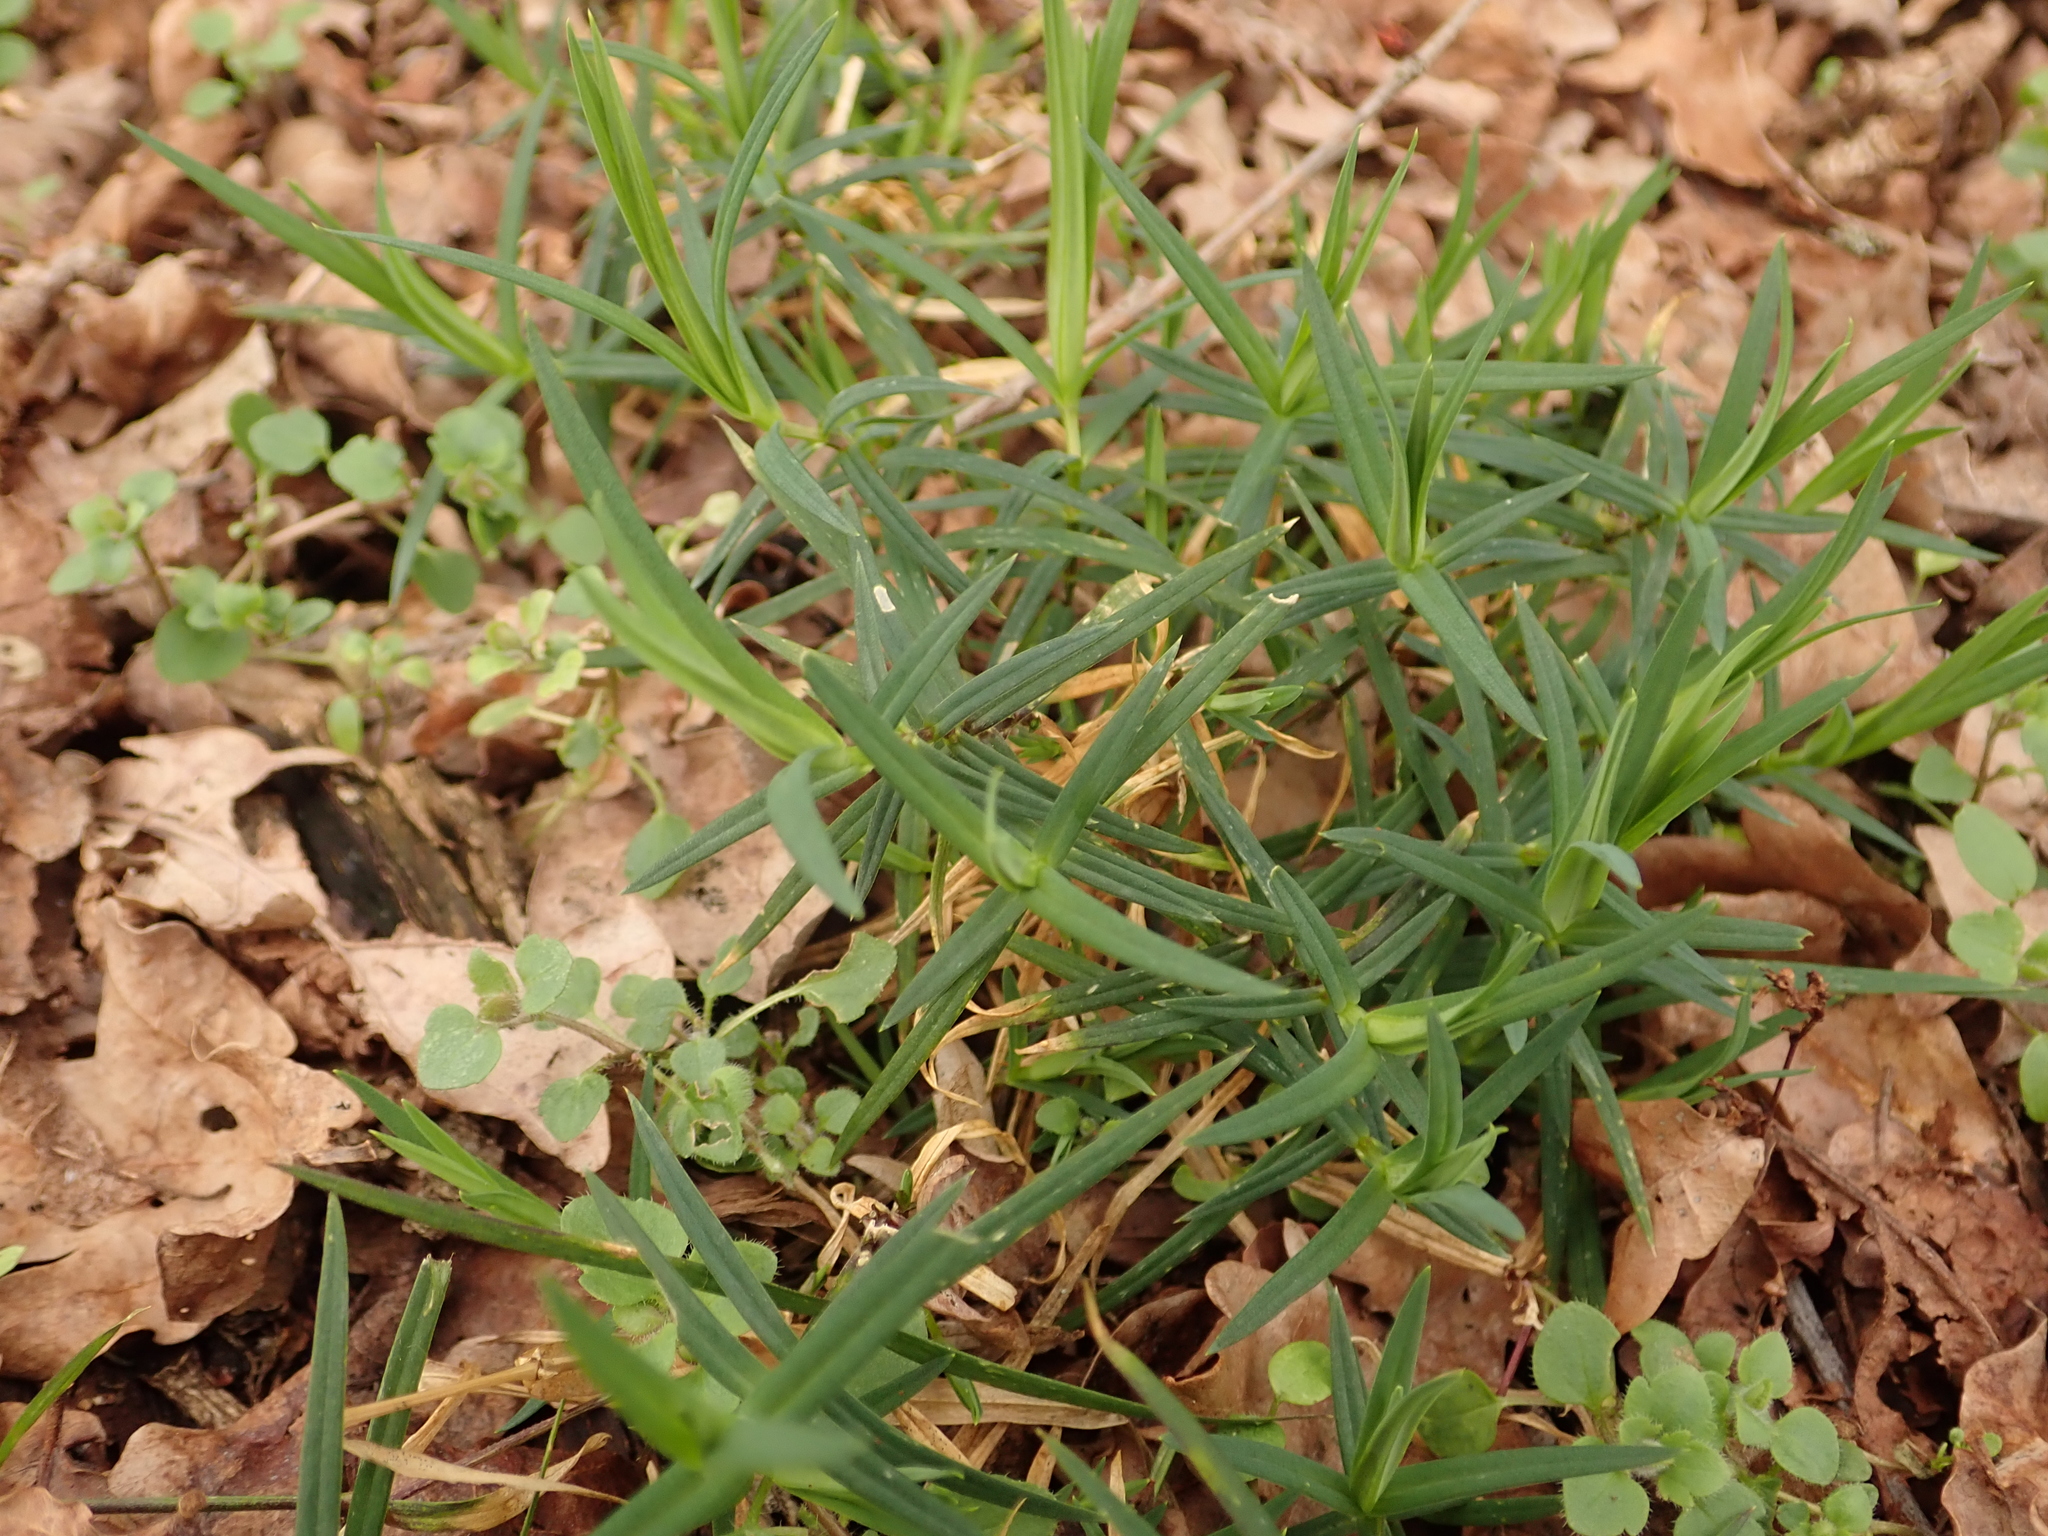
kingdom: Plantae
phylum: Tracheophyta
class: Magnoliopsida
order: Caryophyllales
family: Caryophyllaceae
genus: Rabelera
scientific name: Rabelera holostea
